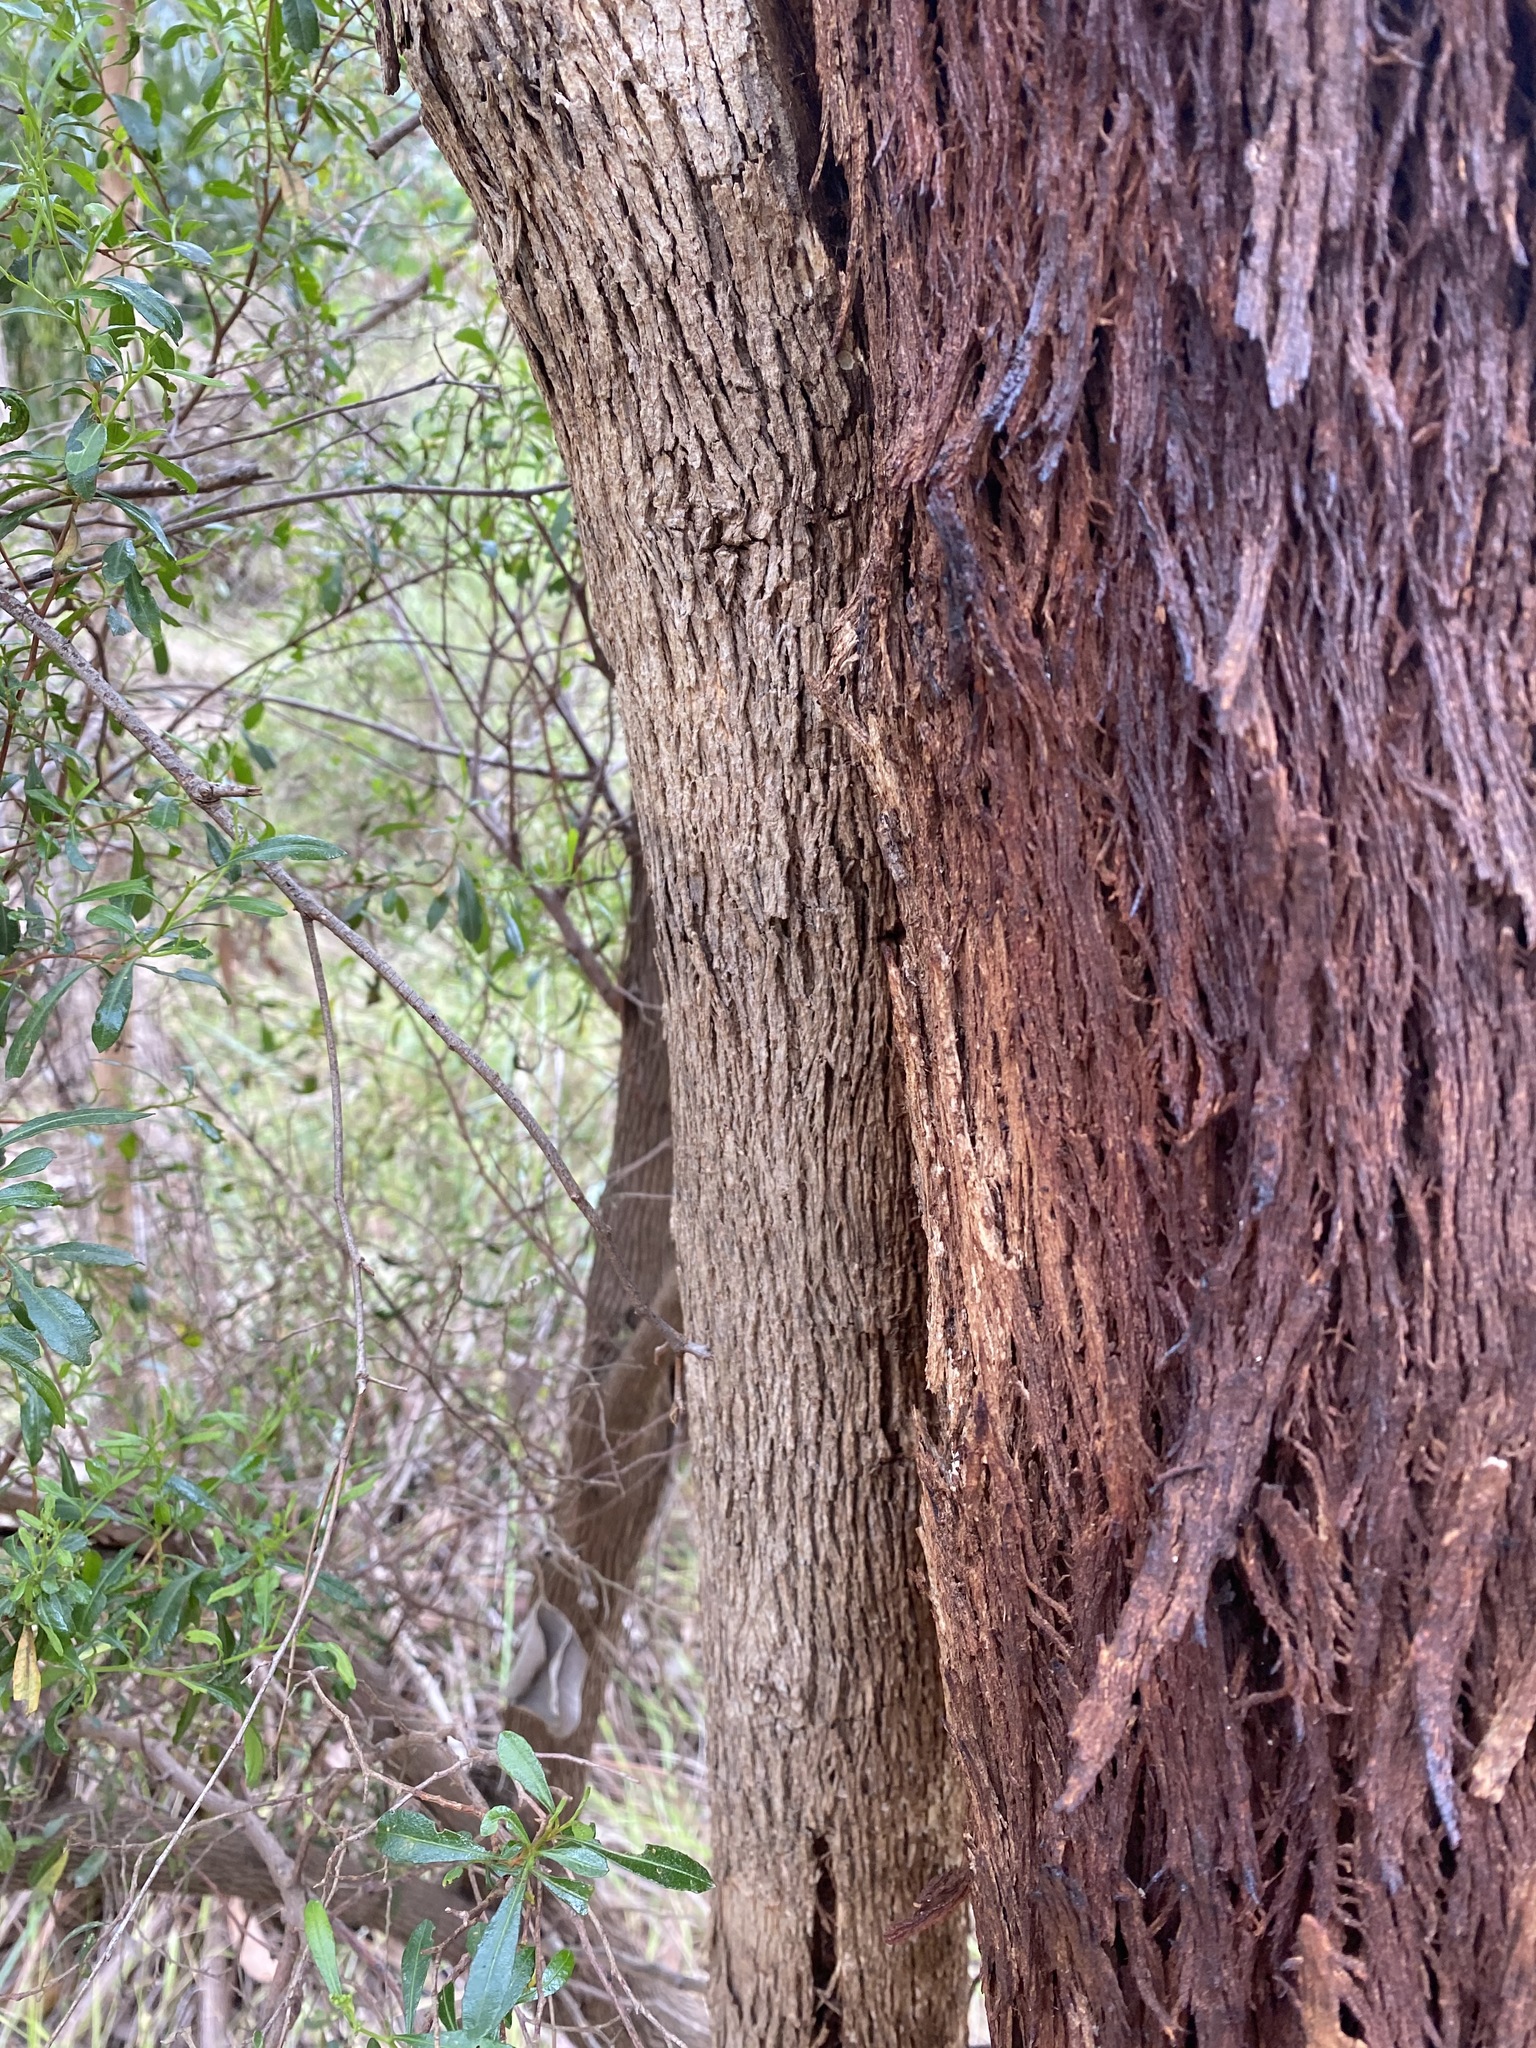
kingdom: Plantae
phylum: Tracheophyta
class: Magnoliopsida
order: Myrtales
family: Myrtaceae
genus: Eucalyptus
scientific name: Eucalyptus polyanthemos
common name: Red-box
